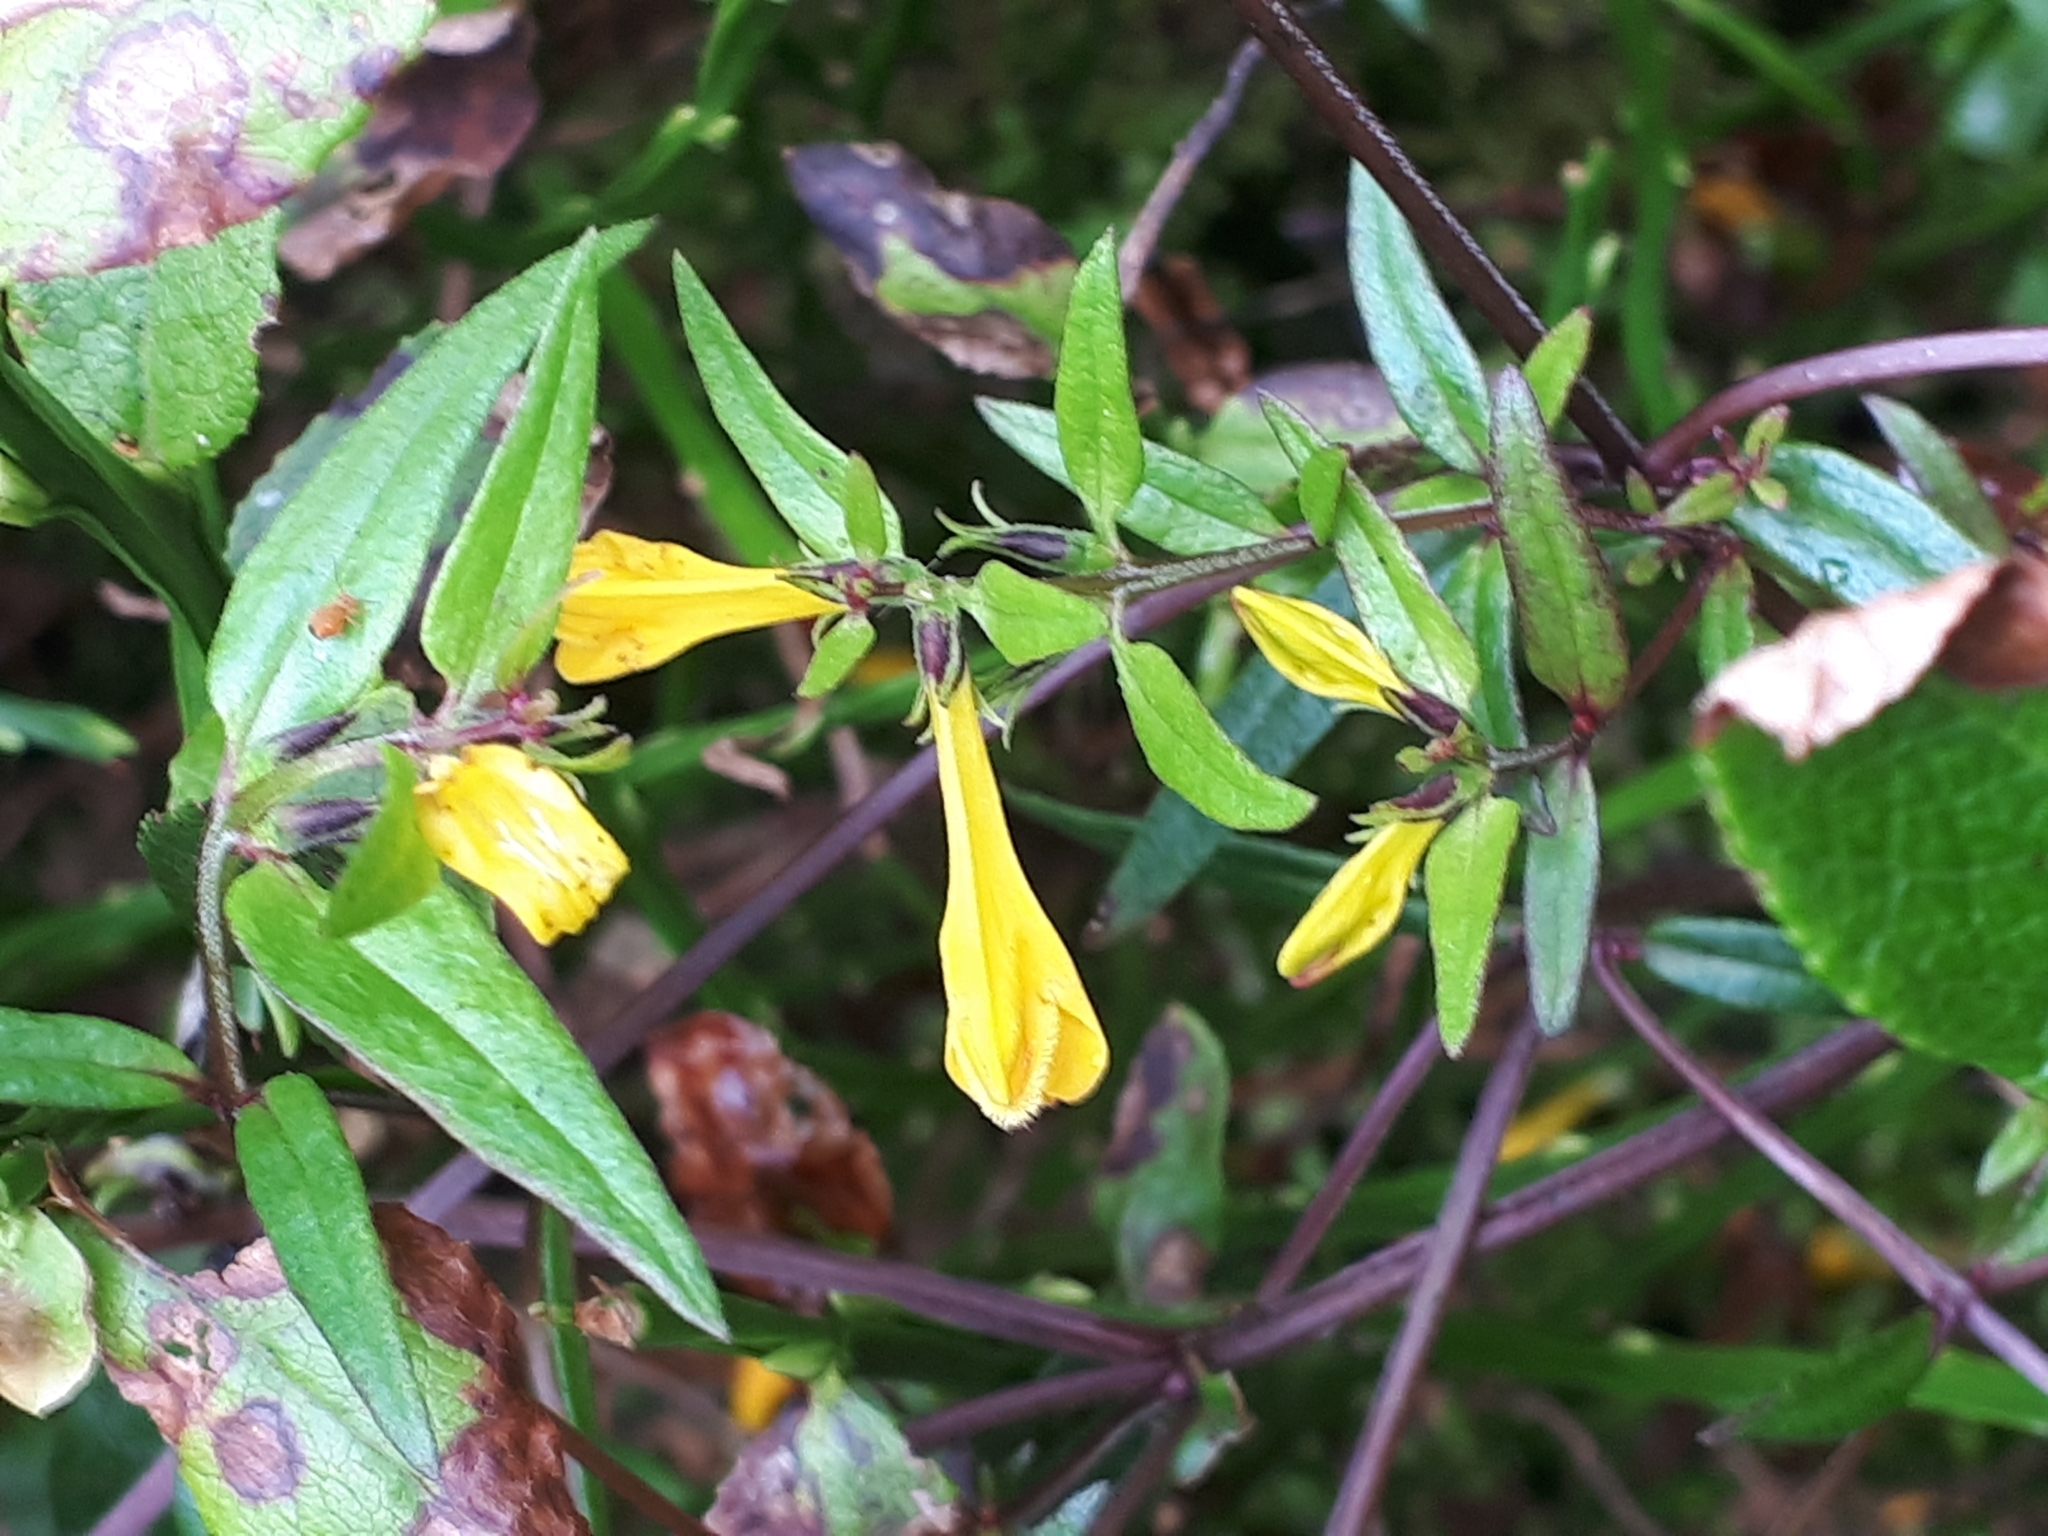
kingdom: Plantae
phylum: Tracheophyta
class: Magnoliopsida
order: Lamiales
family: Orobanchaceae
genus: Melampyrum
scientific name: Melampyrum pratense
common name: Common cow-wheat
